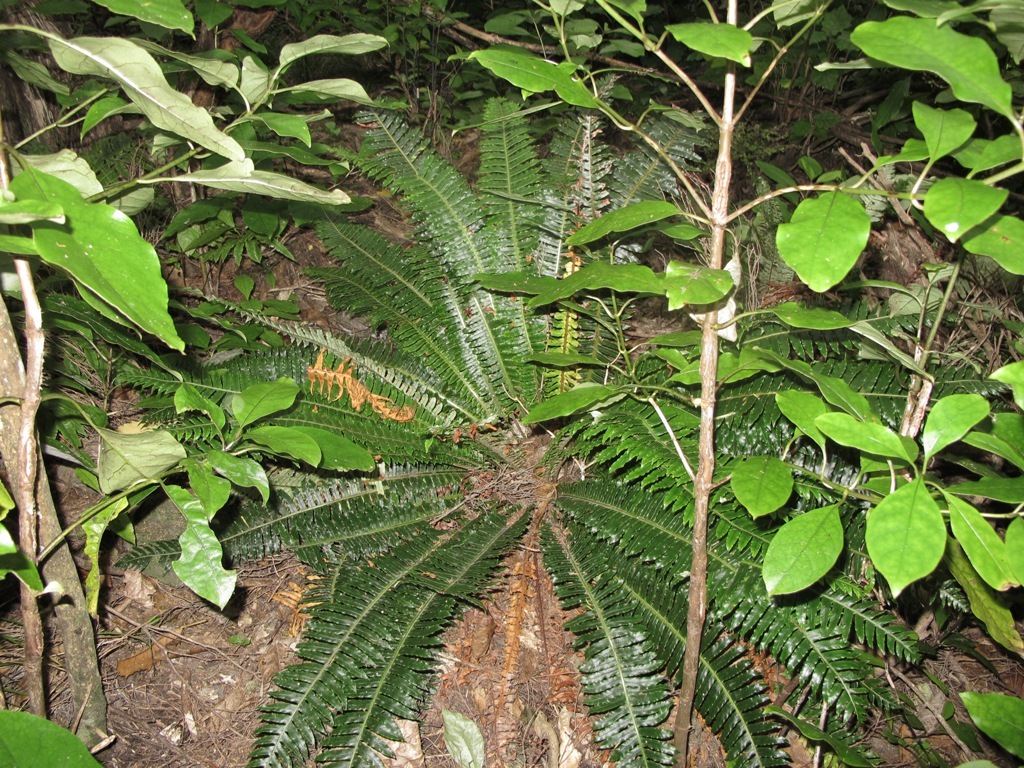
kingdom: Plantae
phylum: Tracheophyta
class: Polypodiopsida
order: Polypodiales
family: Blechnaceae
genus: Lomaria
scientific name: Lomaria discolor
